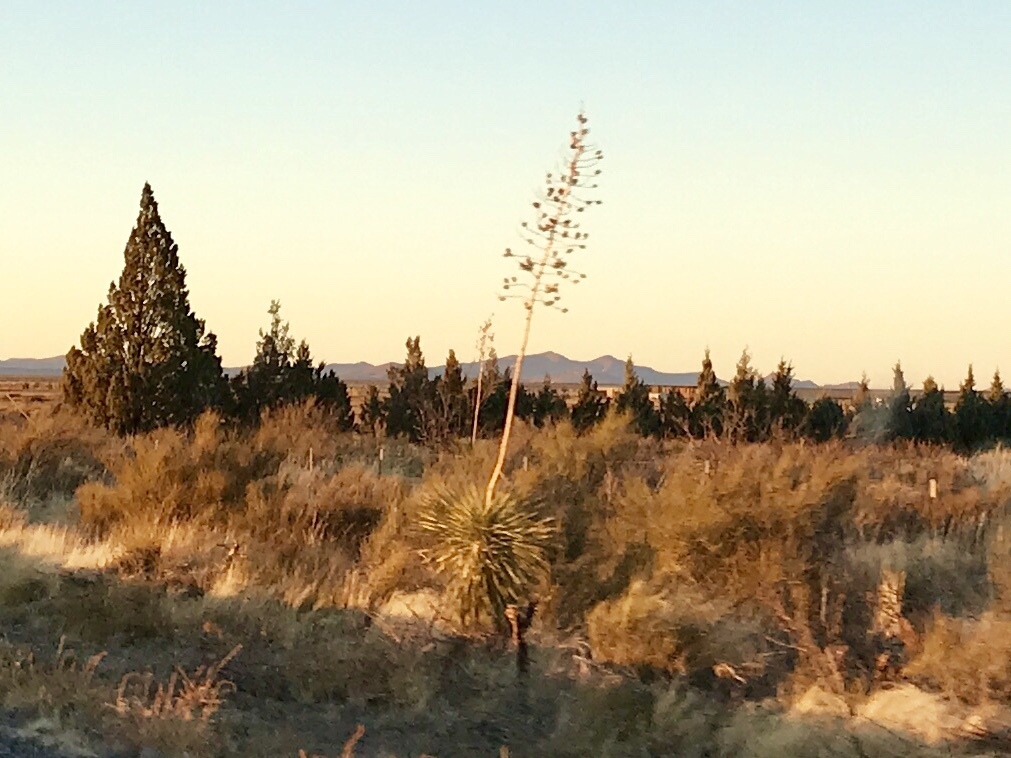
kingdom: Plantae
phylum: Tracheophyta
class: Liliopsida
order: Asparagales
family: Asparagaceae
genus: Yucca
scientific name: Yucca elata
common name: Palmella
